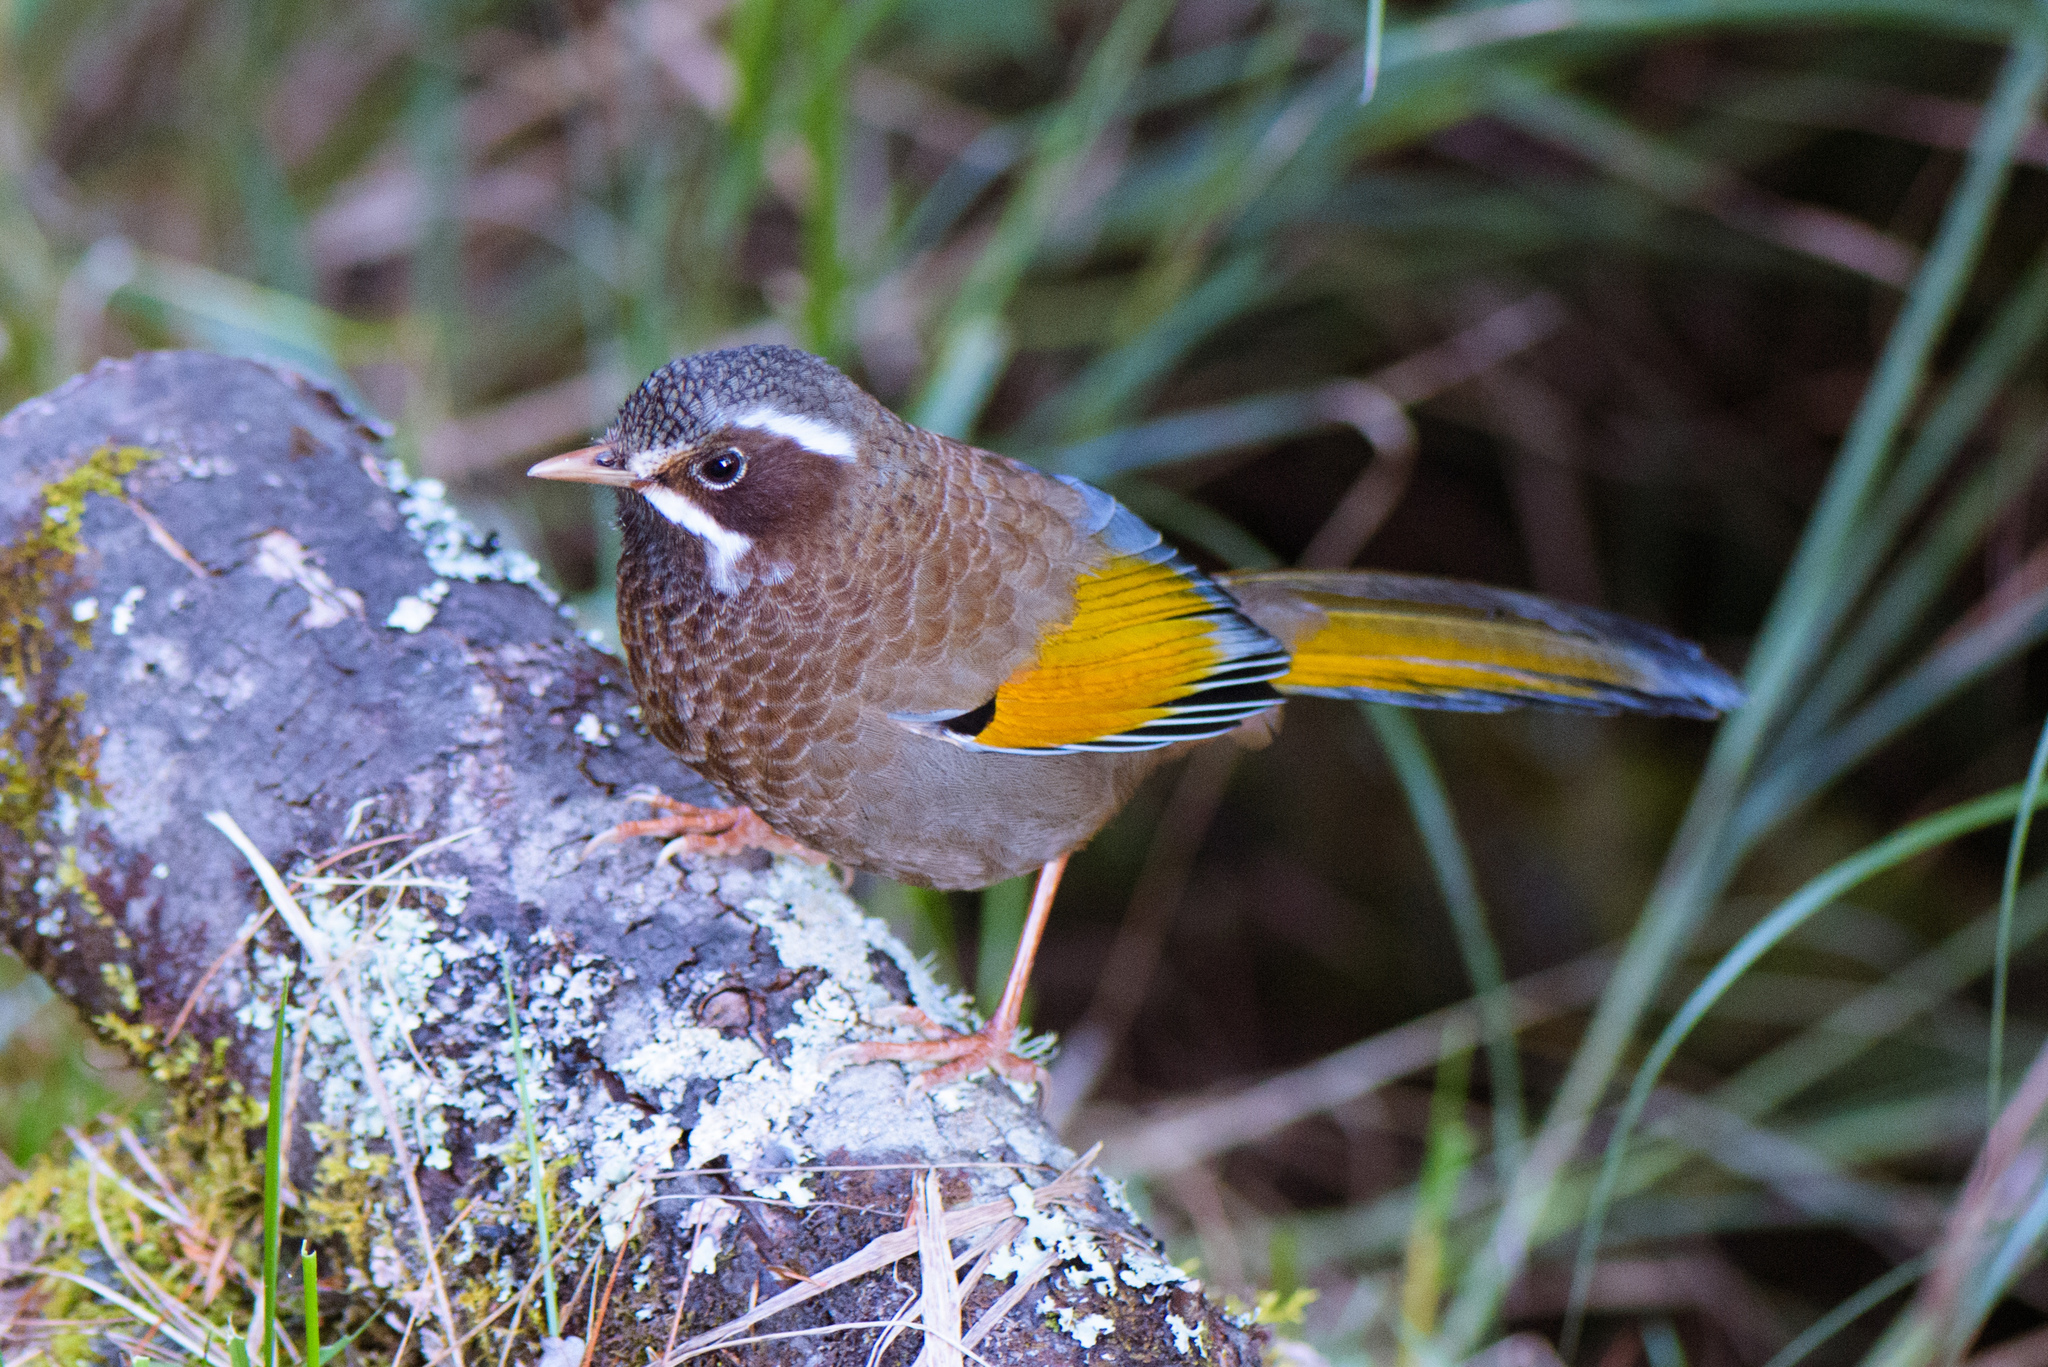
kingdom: Animalia
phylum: Chordata
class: Aves
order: Passeriformes
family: Leiothrichidae
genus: Trochalopteron
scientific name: Trochalopteron morrisonianum
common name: White-whiskered laughingthrush
